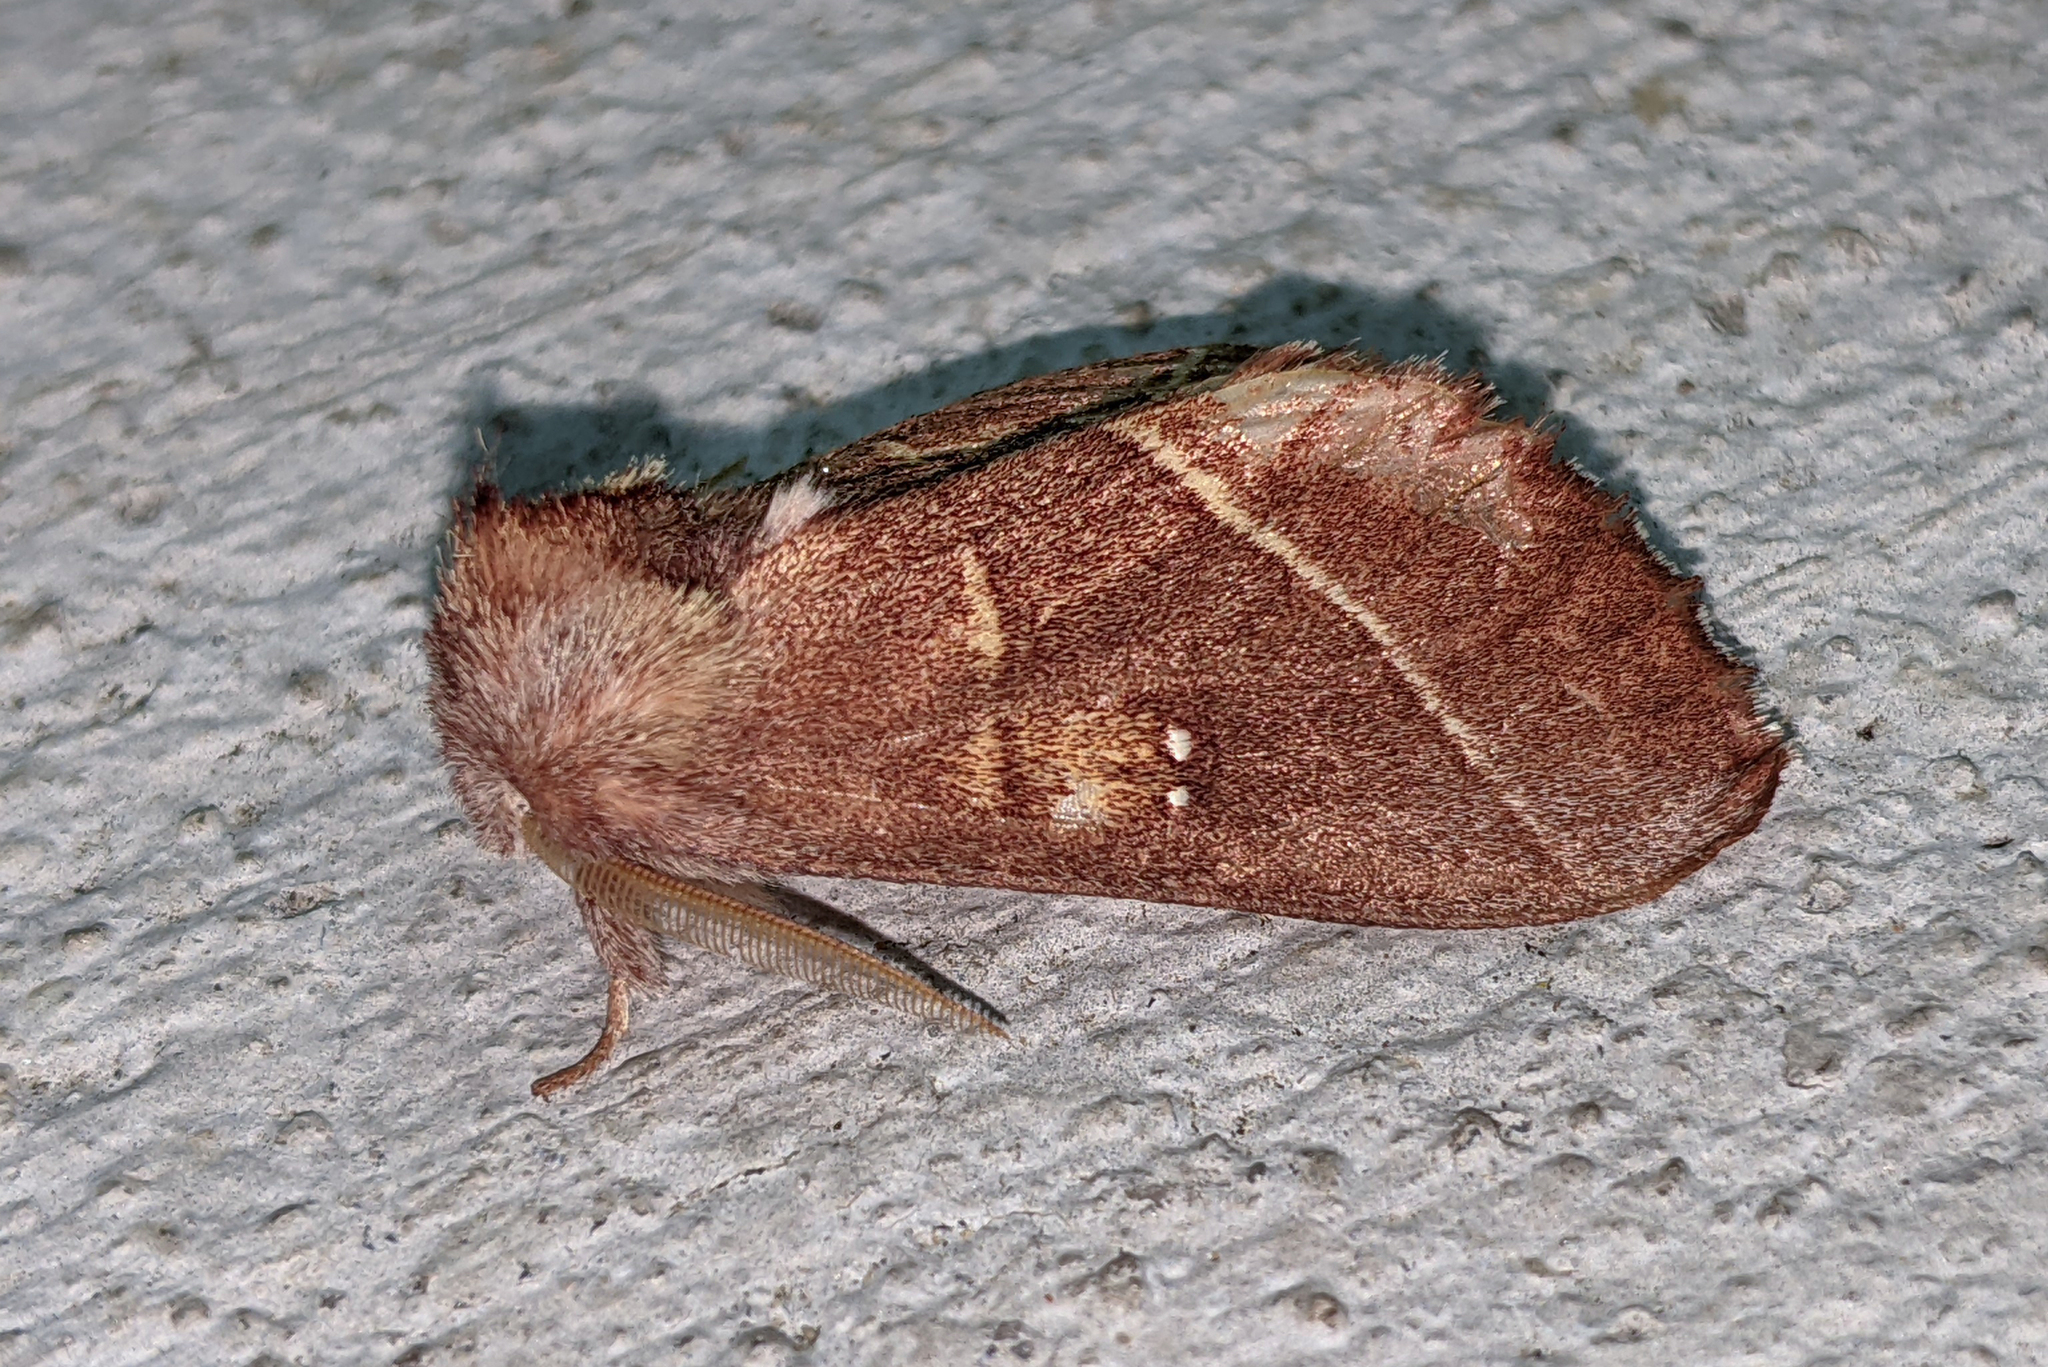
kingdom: Animalia
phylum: Arthropoda
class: Insecta
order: Lepidoptera
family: Notodontidae
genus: Nadata
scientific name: Nadata gibbosa
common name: White-dotted prominent
